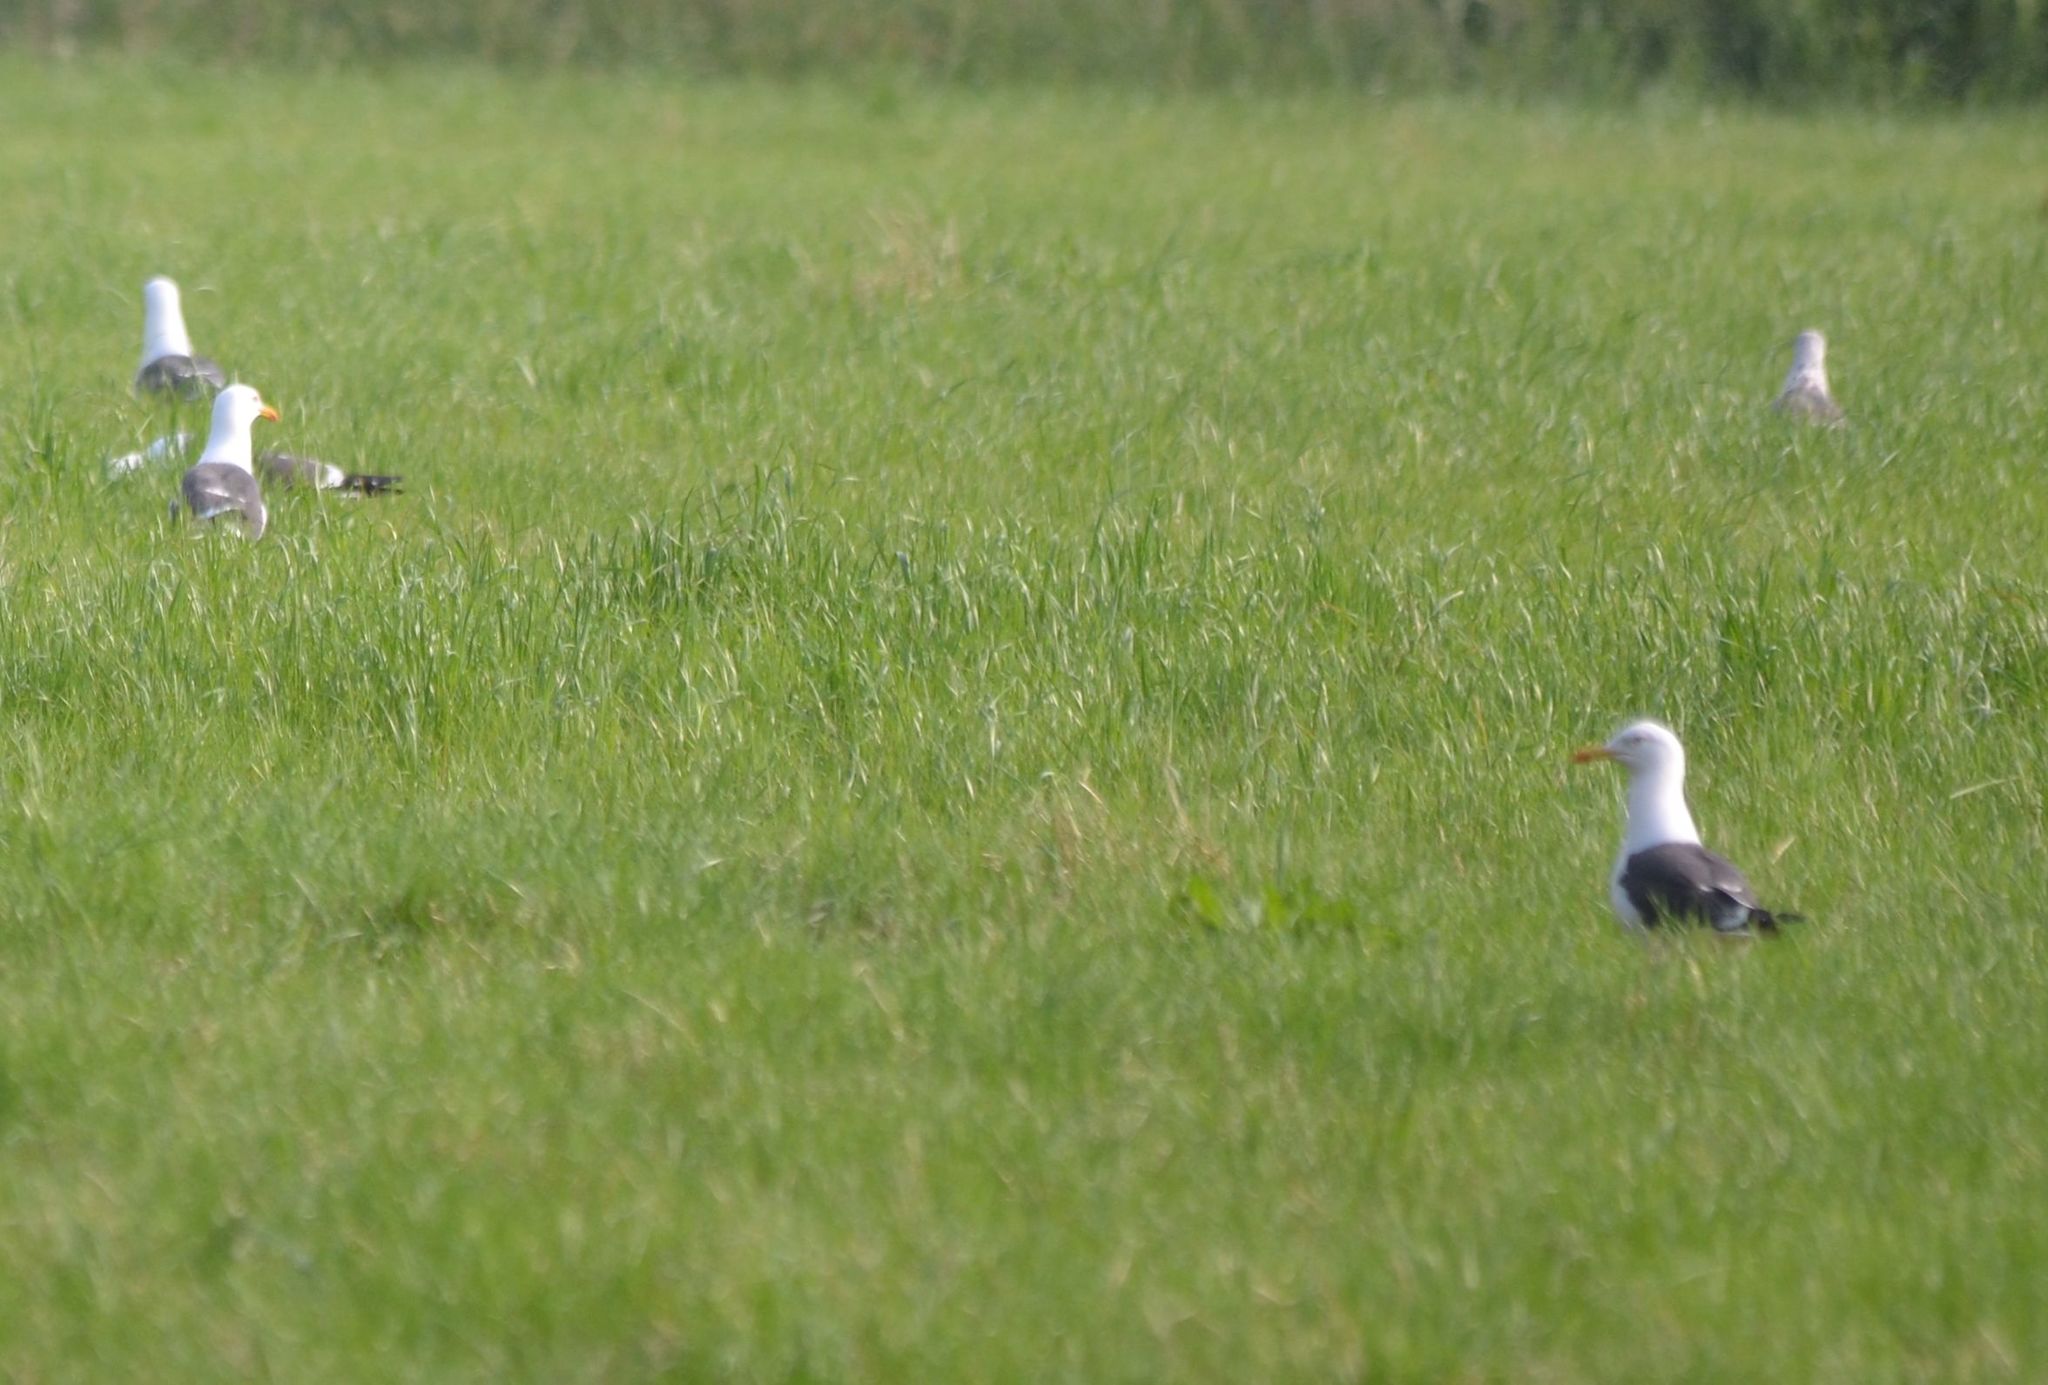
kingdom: Animalia
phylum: Chordata
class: Aves
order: Charadriiformes
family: Laridae
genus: Larus
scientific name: Larus fuscus
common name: Lesser black-backed gull
